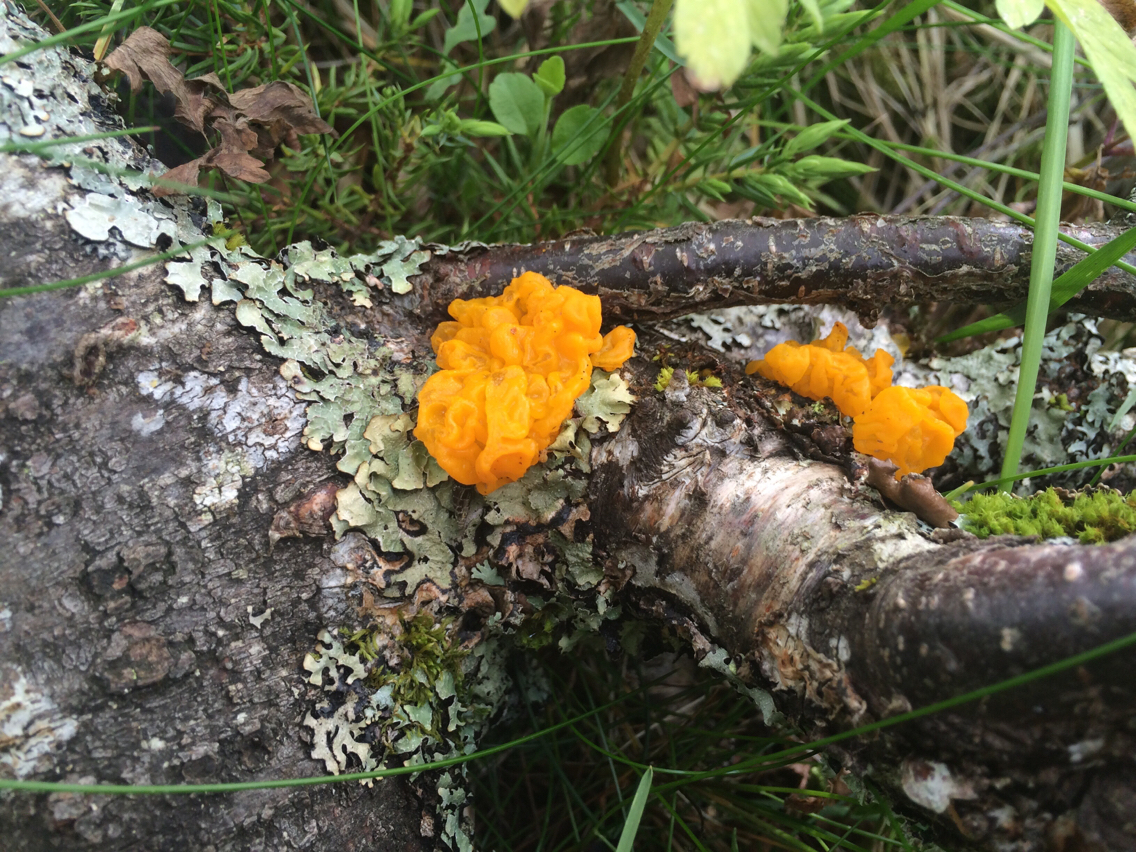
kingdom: Fungi
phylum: Basidiomycota
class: Tremellomycetes
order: Tremellales
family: Tremellaceae
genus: Tremella
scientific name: Tremella mesenterica
